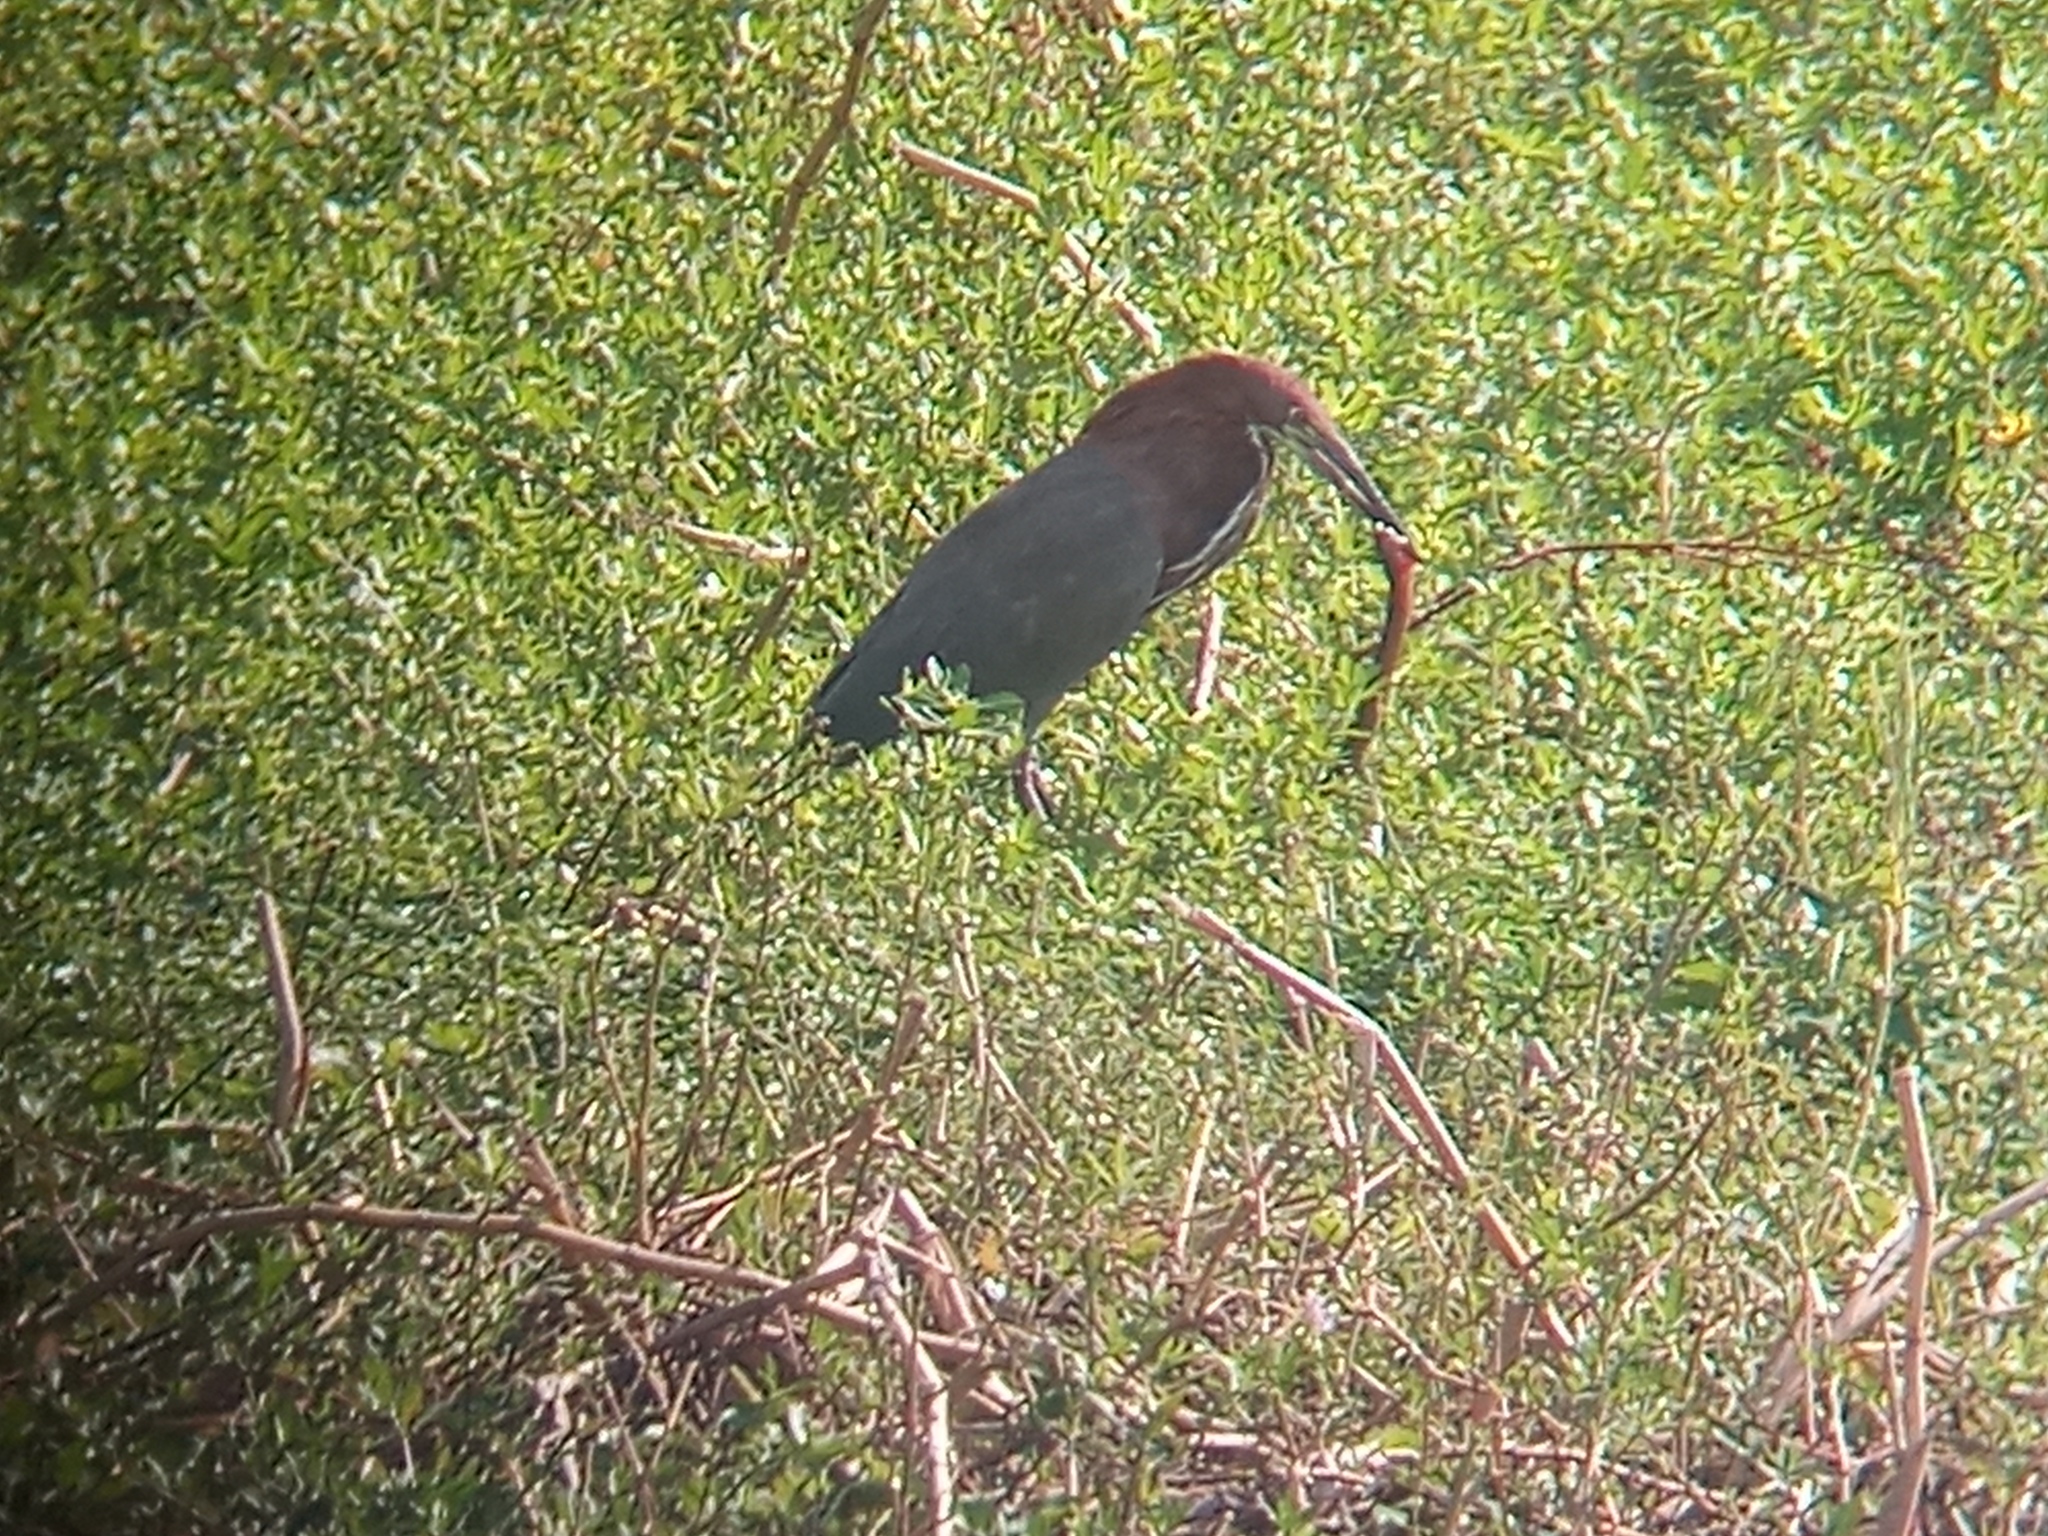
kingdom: Animalia
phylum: Chordata
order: Synbranchiformes
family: Synbranchidae
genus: Synbranchus
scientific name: Synbranchus marmoratus
